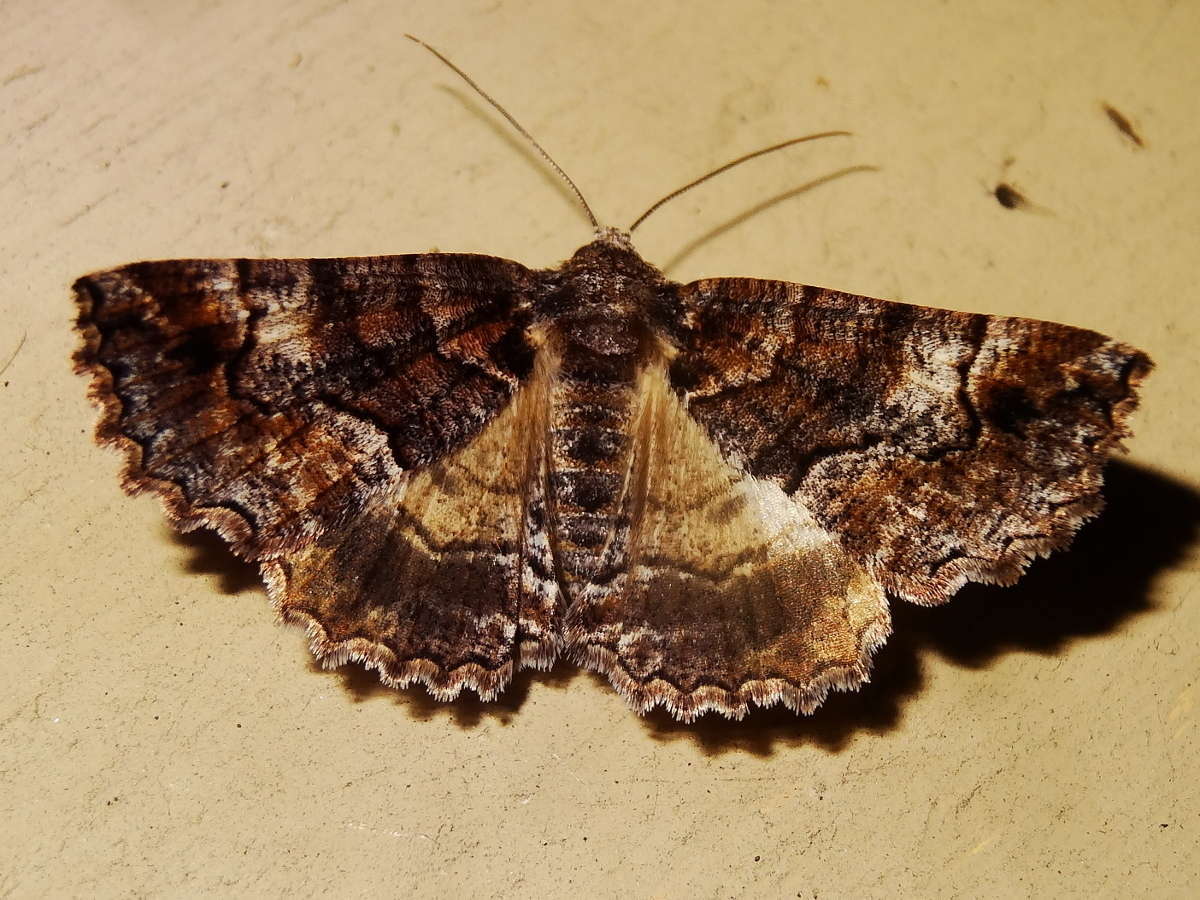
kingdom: Animalia
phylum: Arthropoda
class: Insecta
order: Lepidoptera
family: Geometridae
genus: Gastrina
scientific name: Gastrina cristaria
